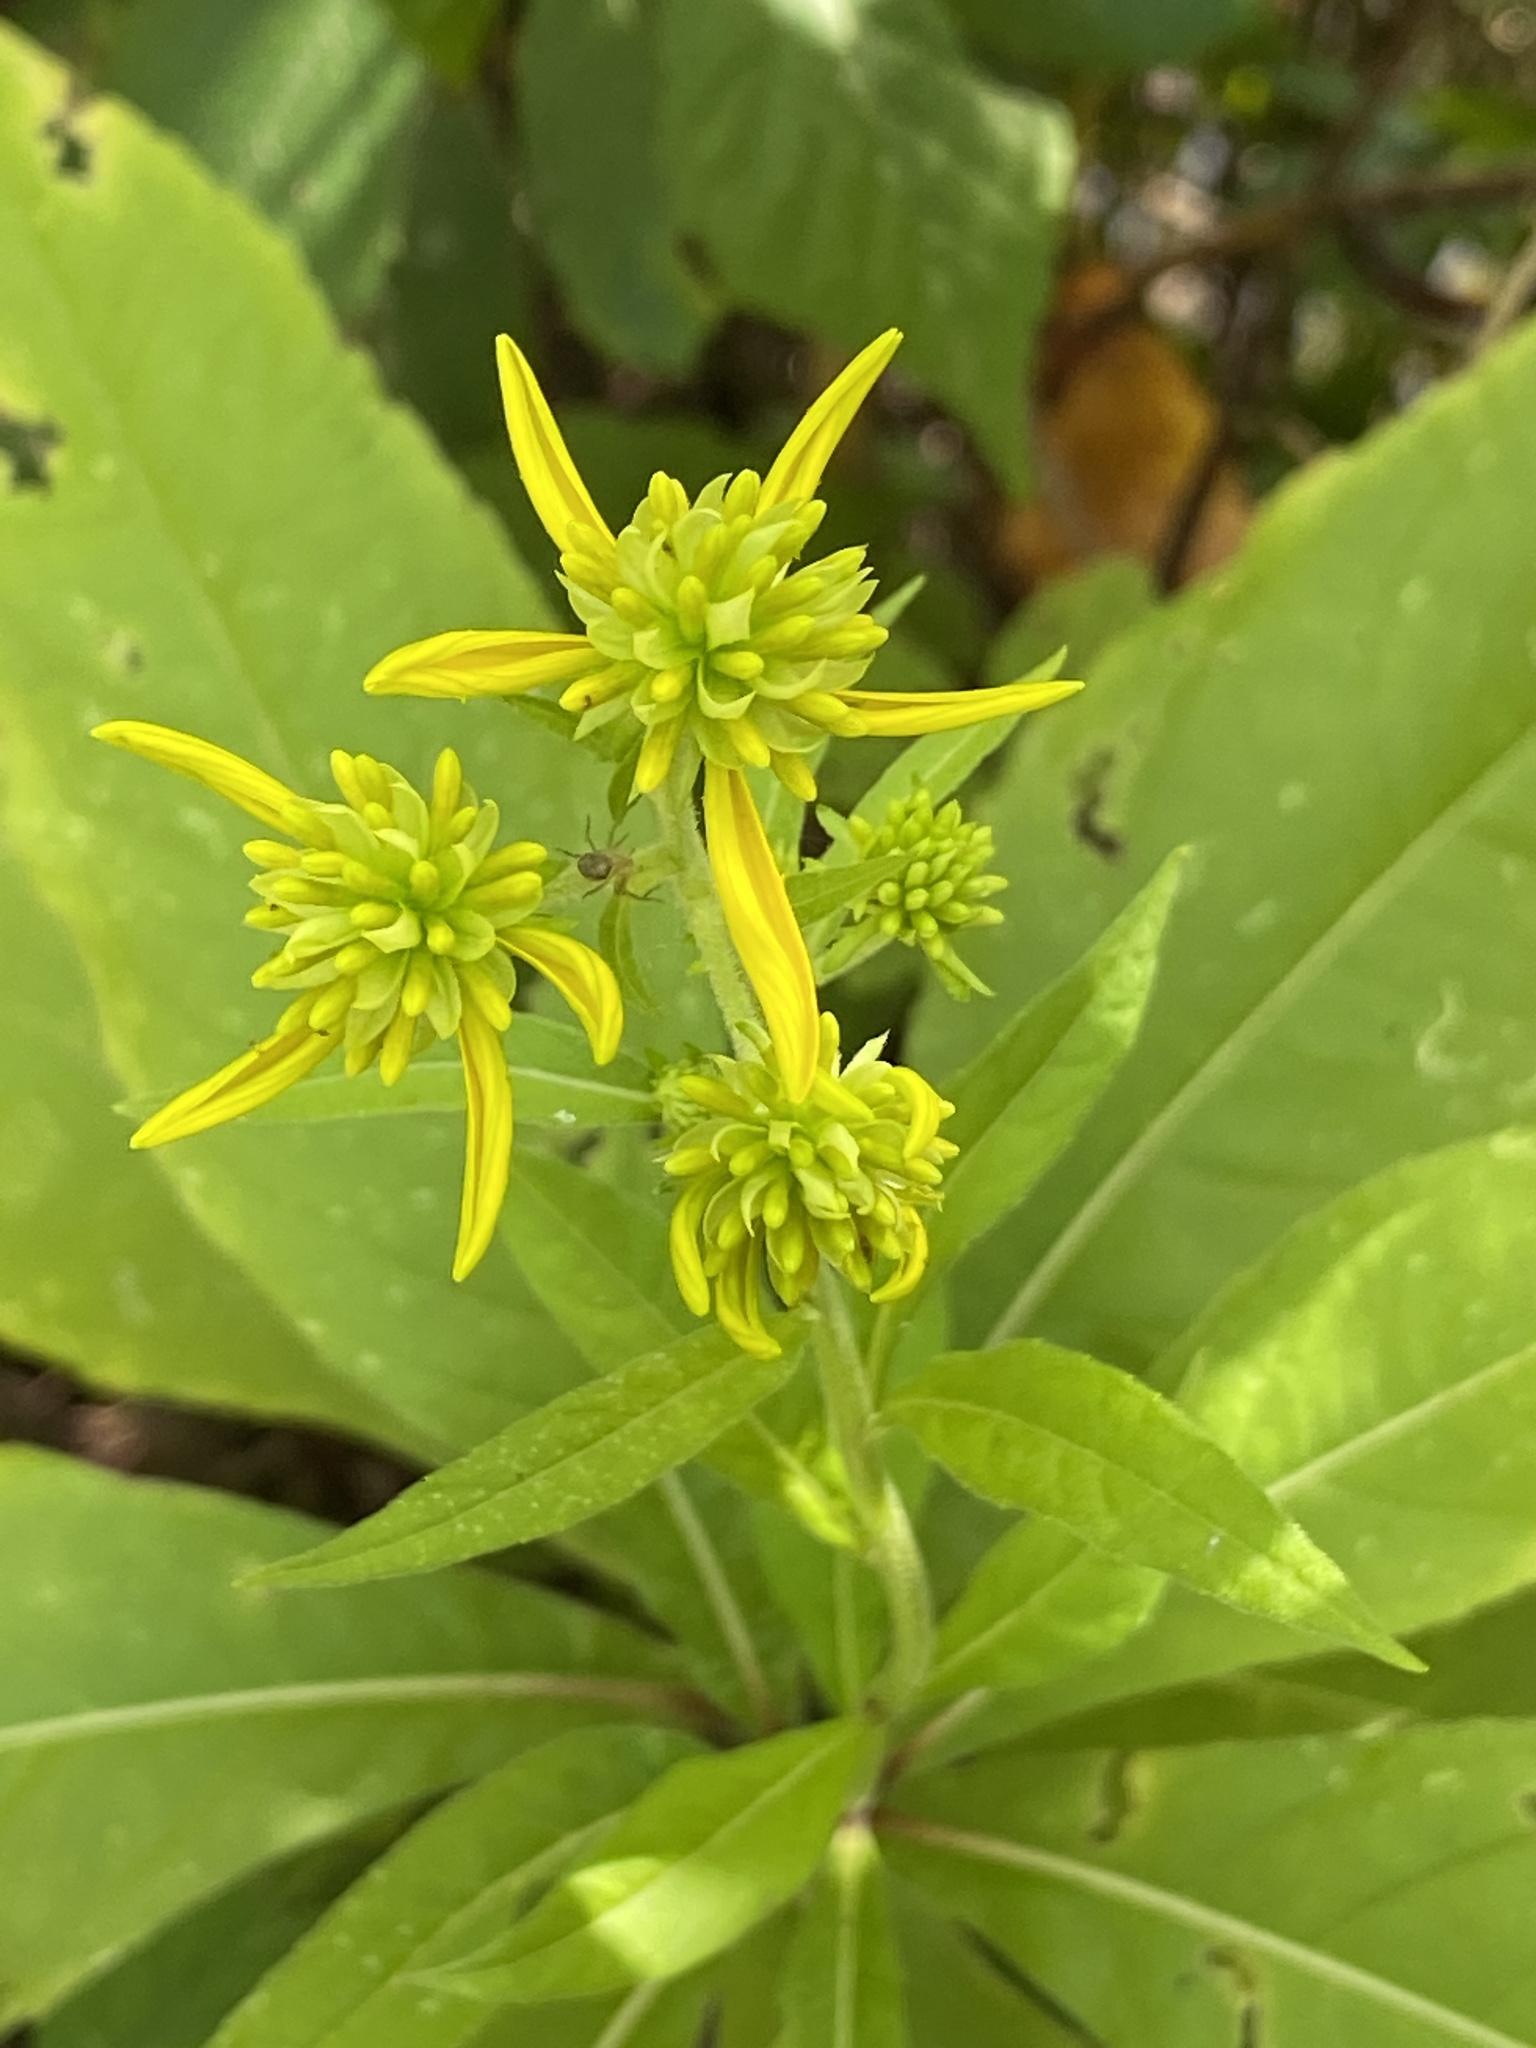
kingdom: Plantae
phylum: Tracheophyta
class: Magnoliopsida
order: Asterales
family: Asteraceae
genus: Verbesina
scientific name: Verbesina alternifolia
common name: Wingstem
